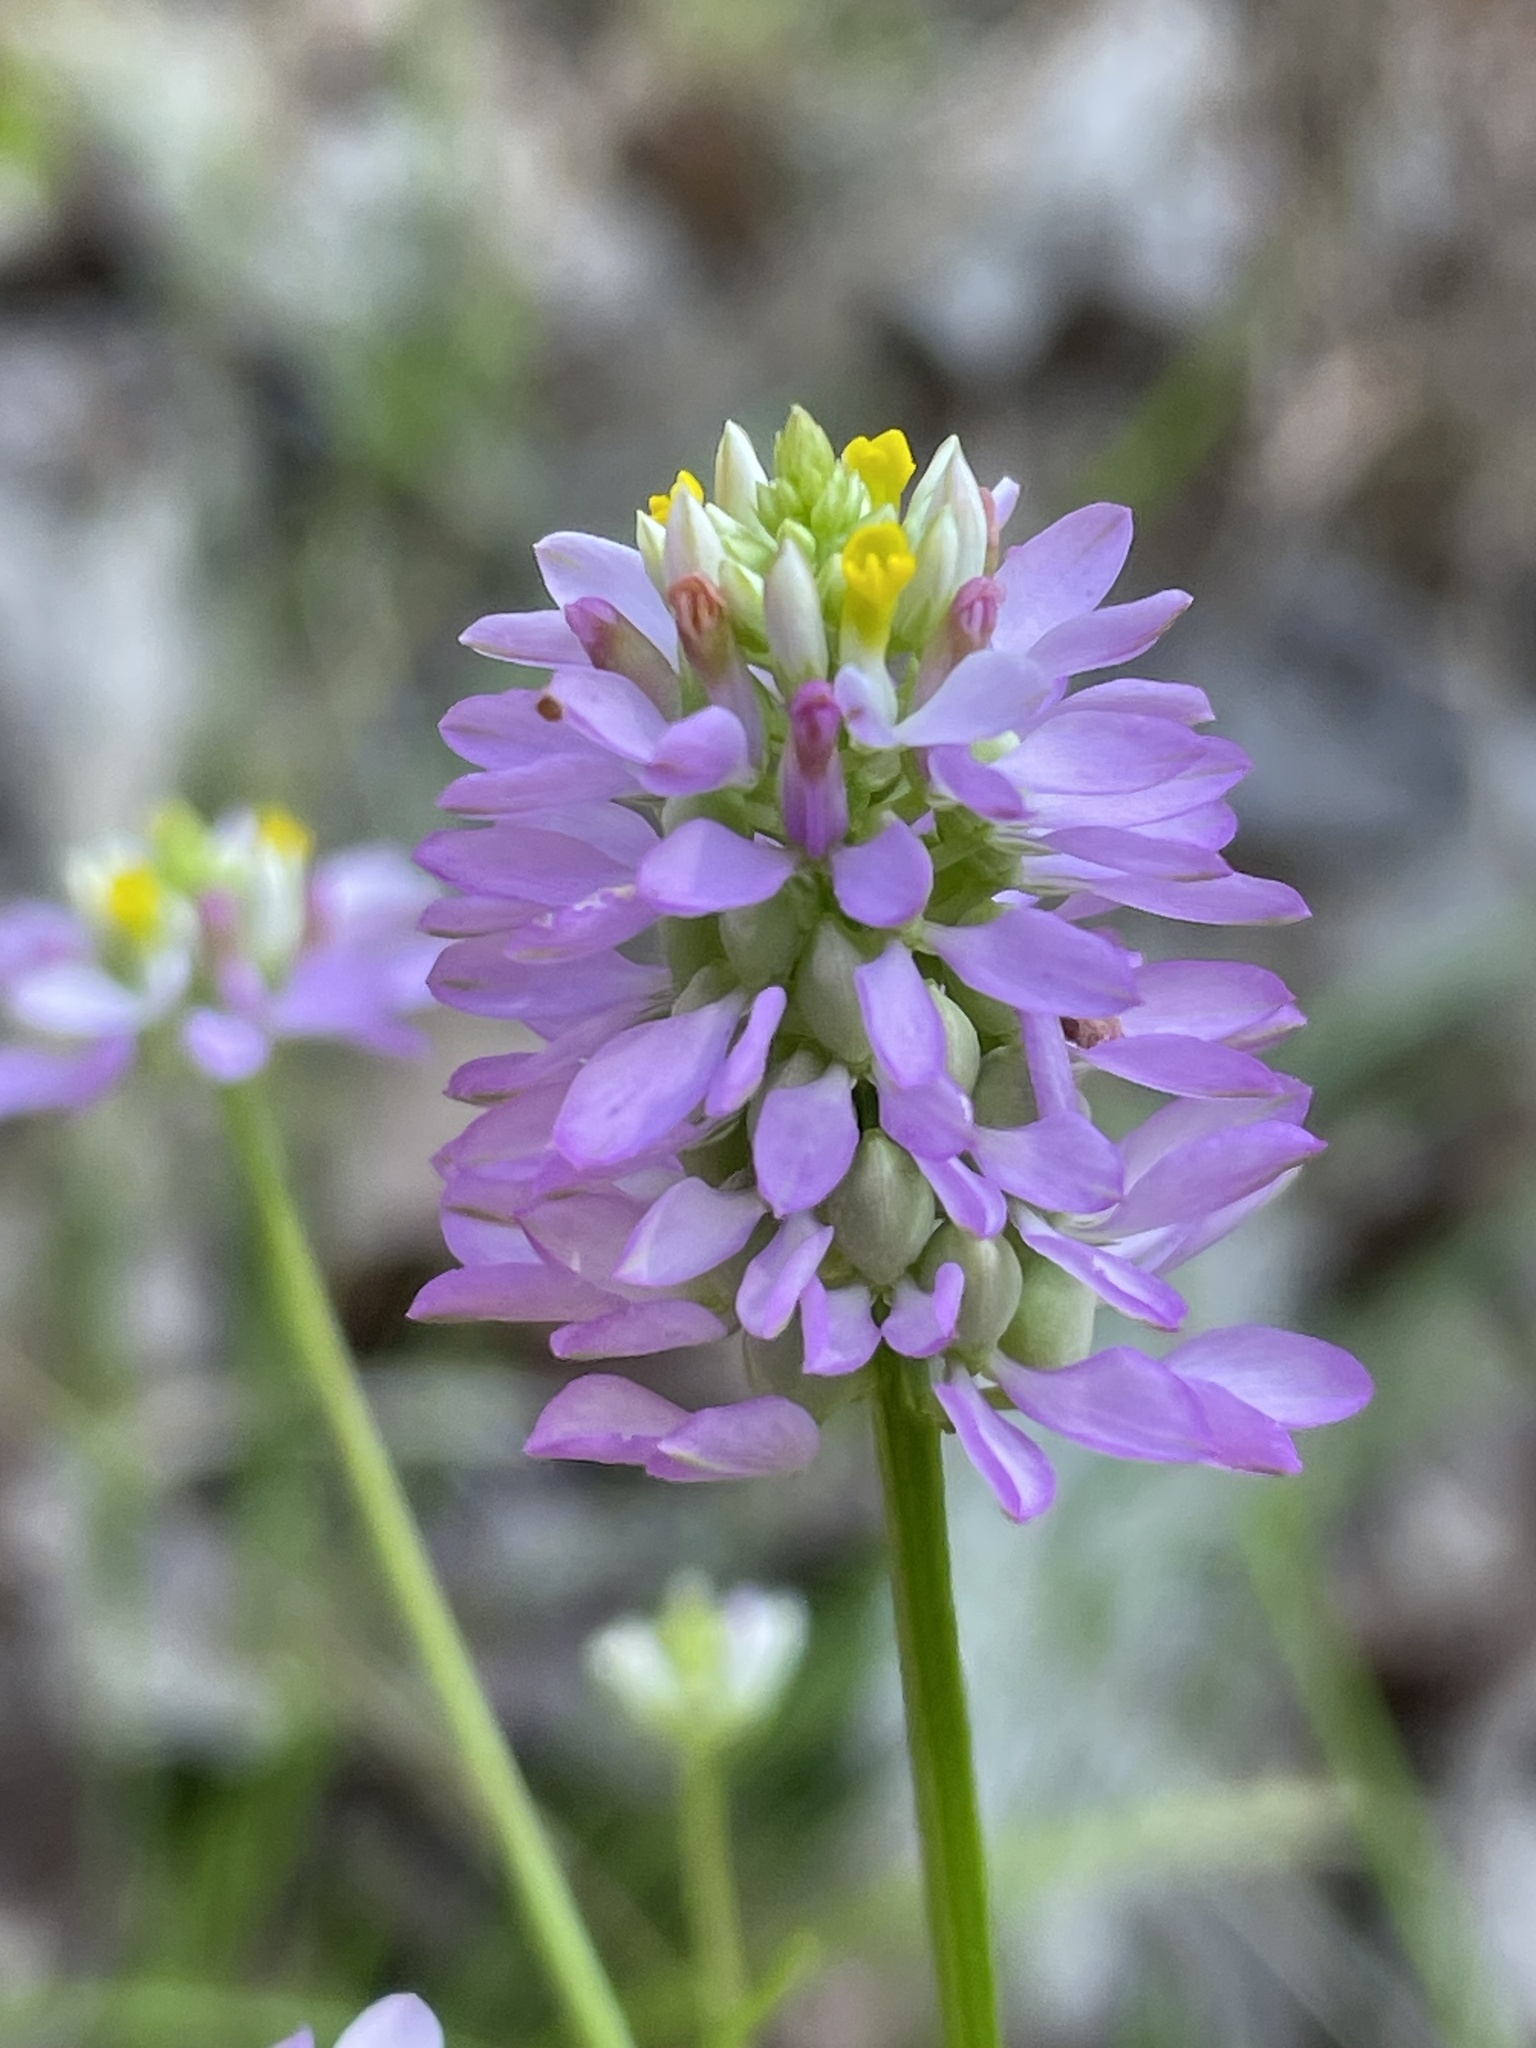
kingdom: Plantae
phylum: Tracheophyta
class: Magnoliopsida
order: Fabales
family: Polygalaceae
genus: Polygala
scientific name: Polygala curtissii
